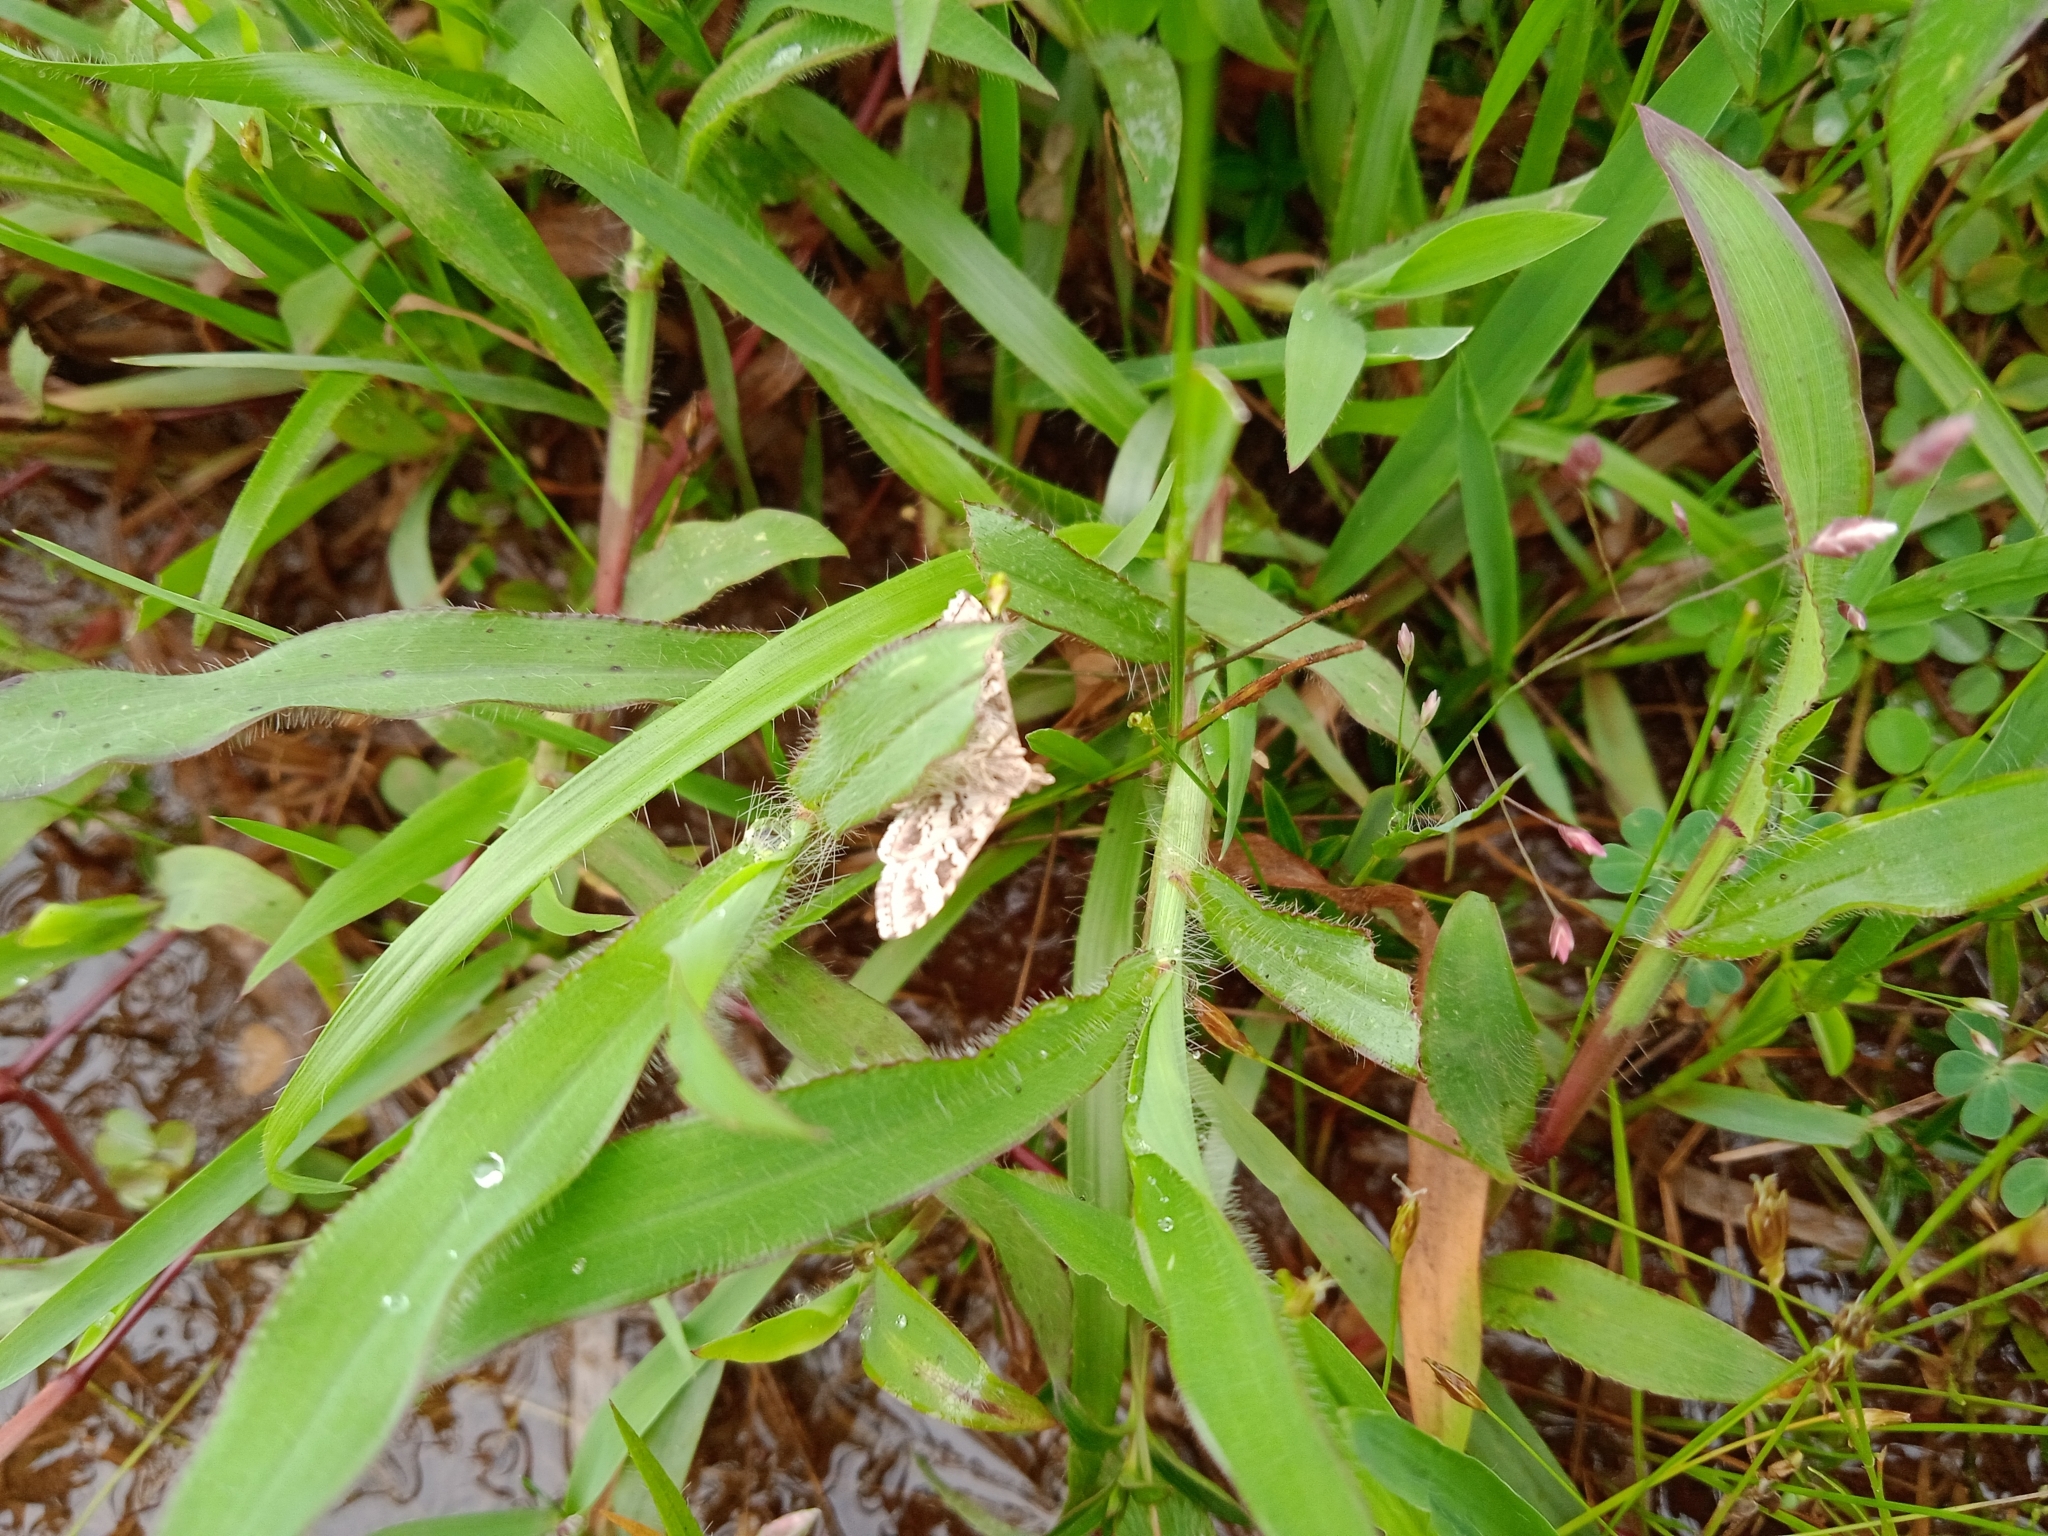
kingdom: Animalia
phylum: Arthropoda
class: Insecta
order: Lepidoptera
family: Crambidae
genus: Sameodes
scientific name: Sameodes cancellalis
